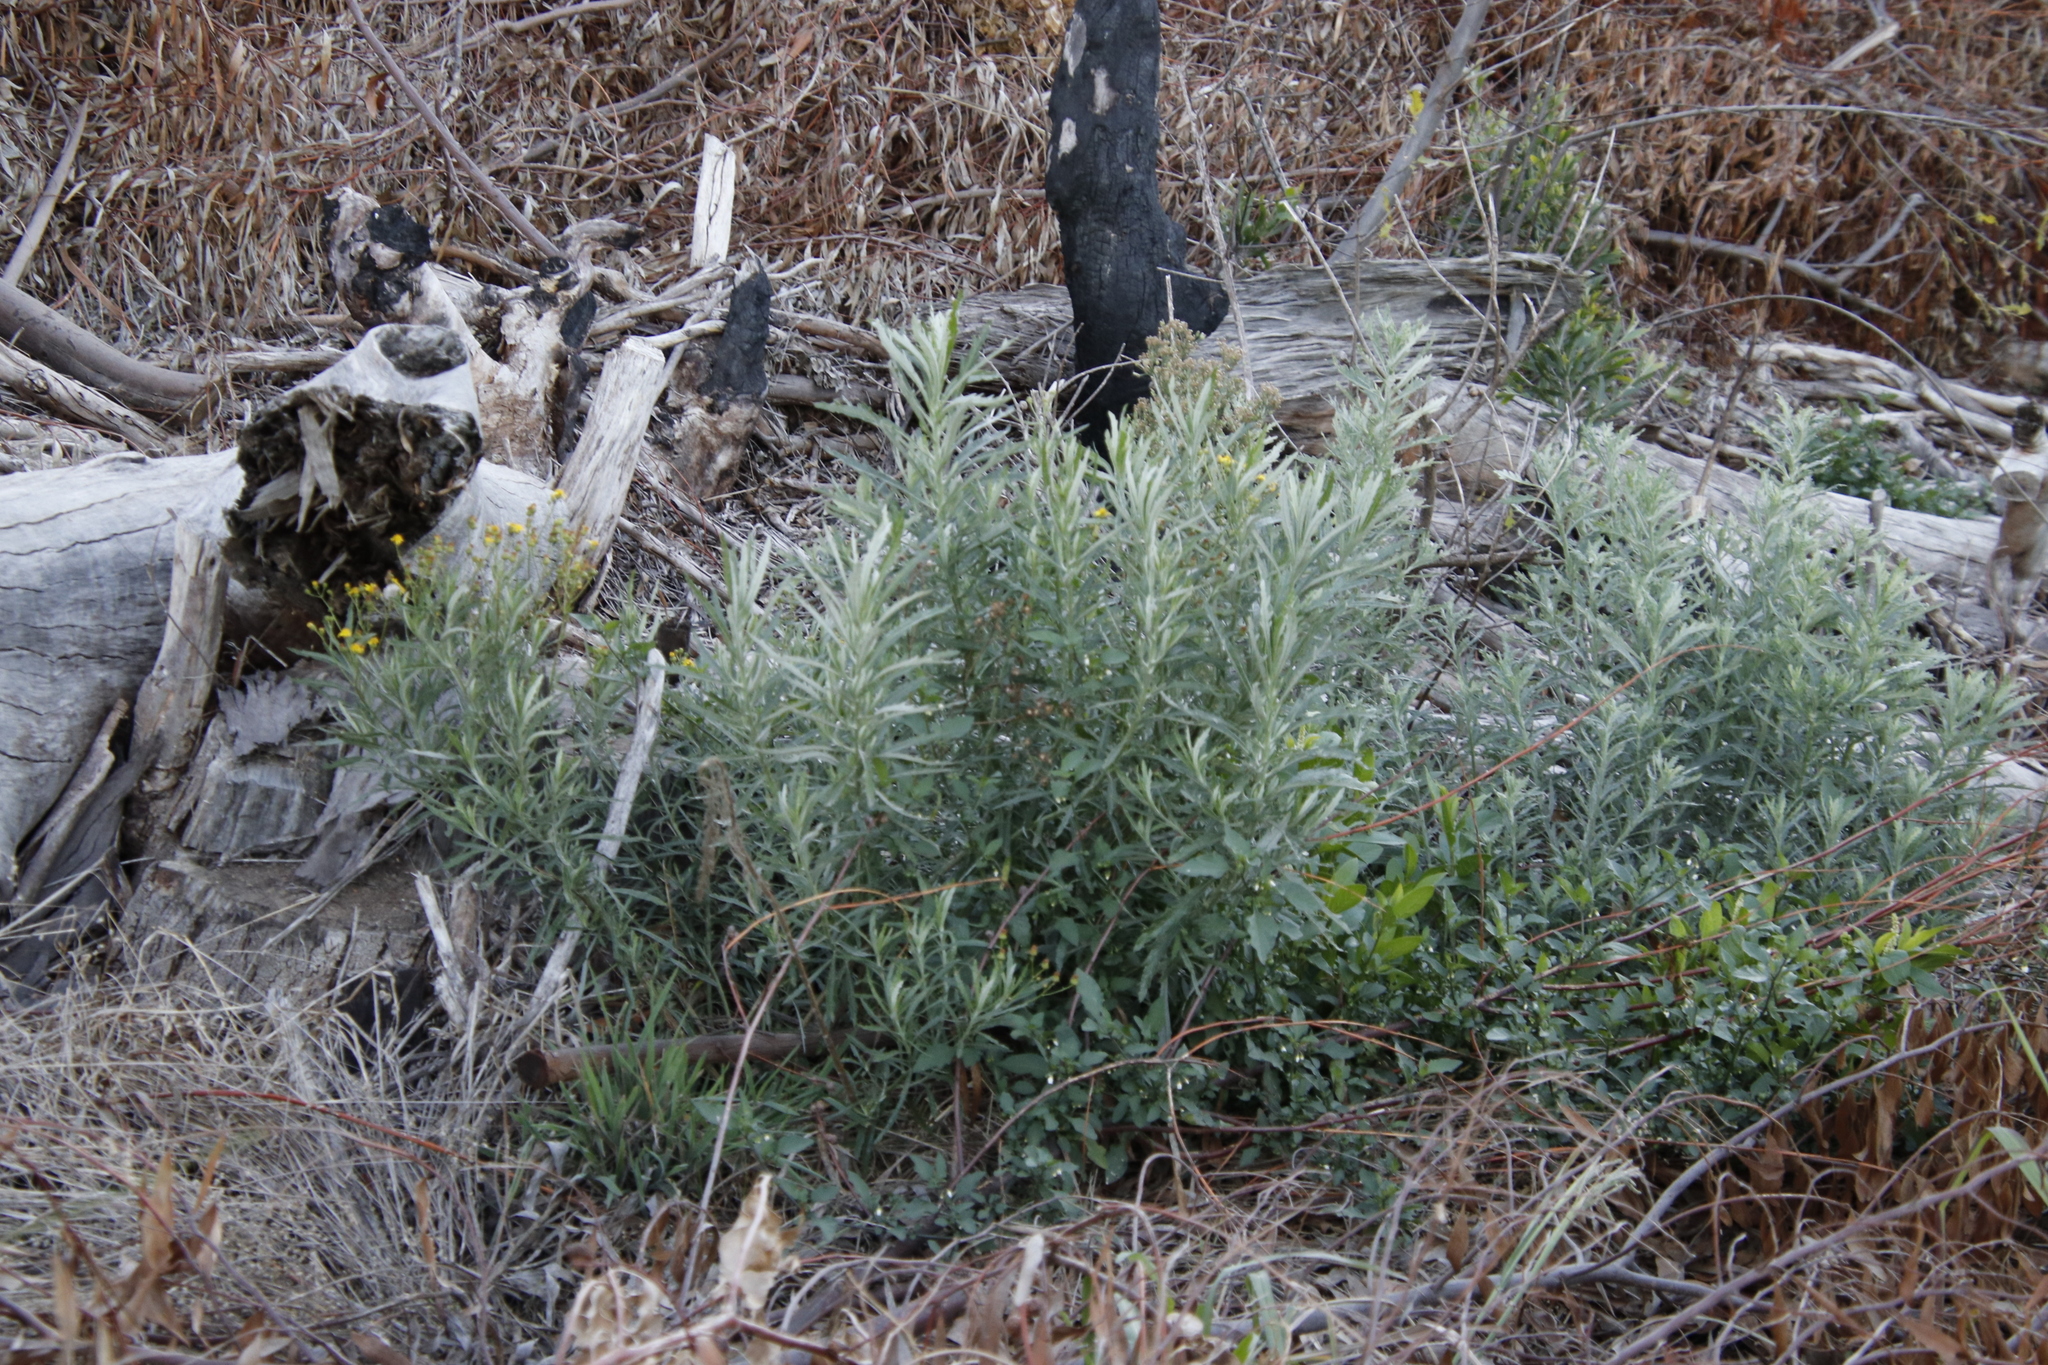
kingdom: Plantae
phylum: Tracheophyta
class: Magnoliopsida
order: Asterales
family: Asteraceae
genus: Senecio
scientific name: Senecio pterophorus
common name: Shoddy ragwort
